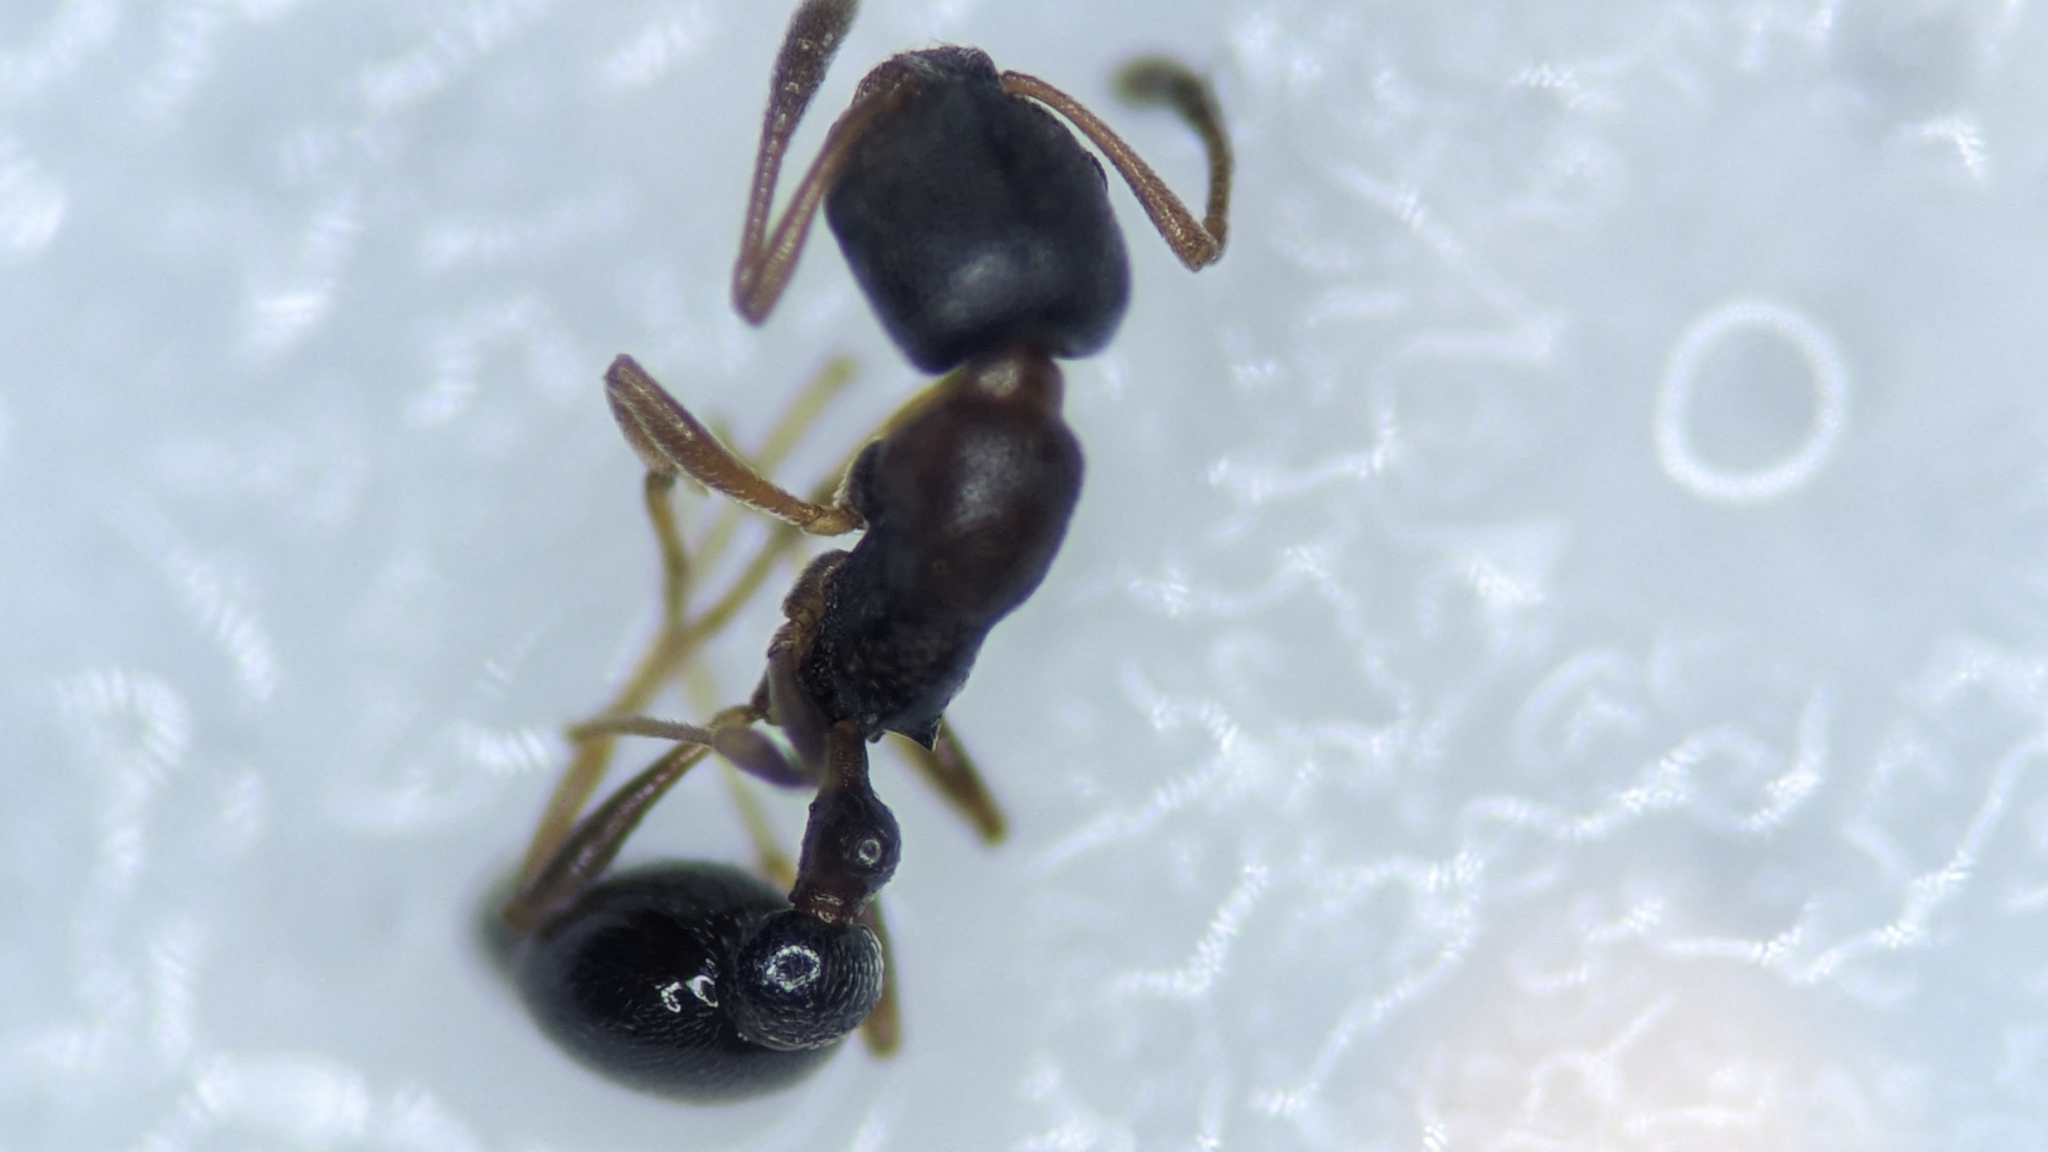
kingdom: Animalia
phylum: Arthropoda
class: Insecta
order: Hymenoptera
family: Formicidae
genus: Cardiocondyla
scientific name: Cardiocondyla mauritanica
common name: Sneaking ant
